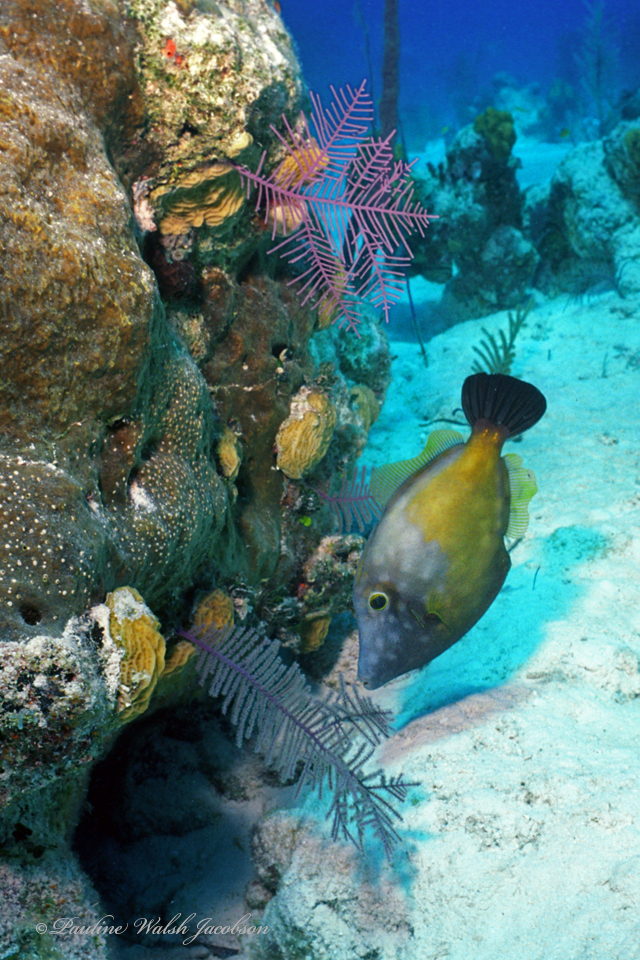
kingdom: Animalia
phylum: Chordata
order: Tetraodontiformes
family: Monacanthidae
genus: Cantherhines
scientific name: Cantherhines macrocerus
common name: Whitespotted filefish
